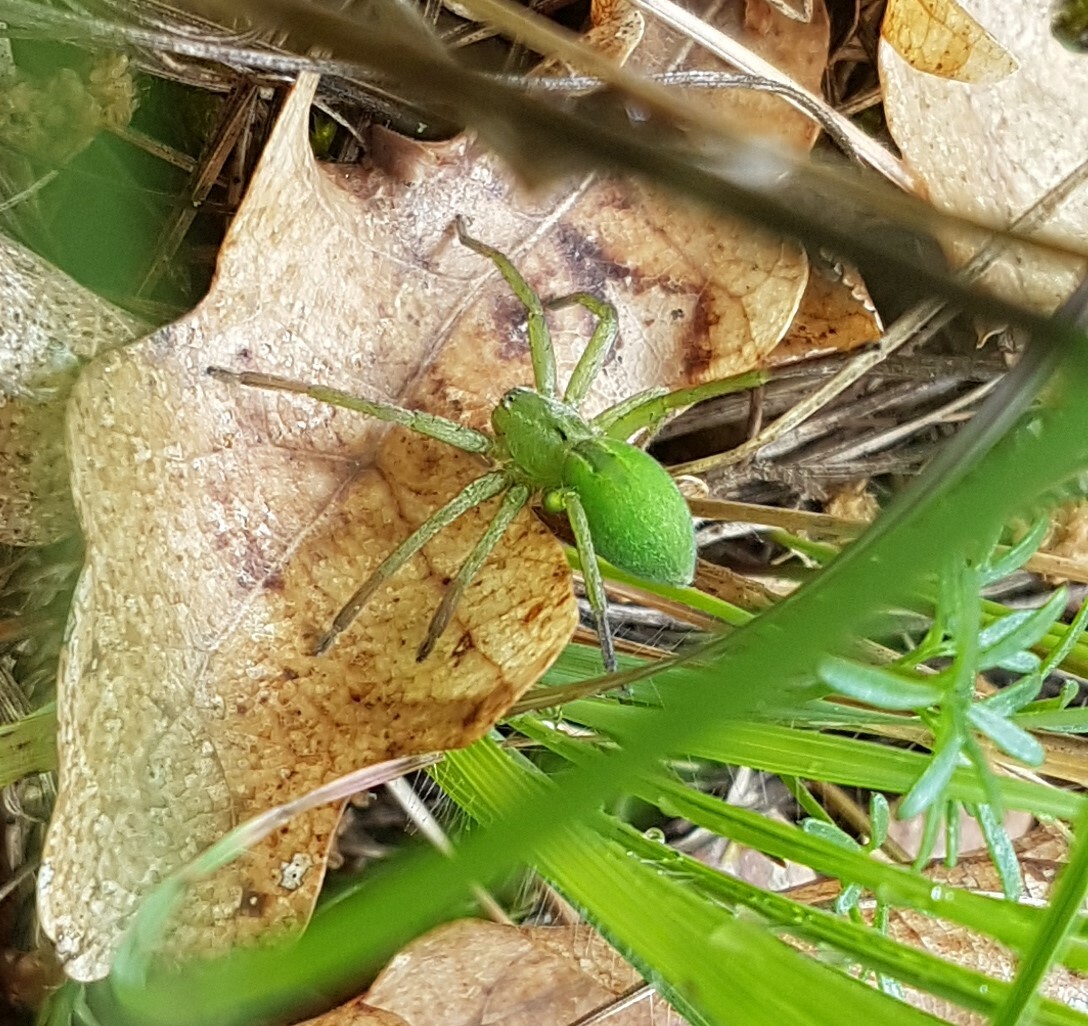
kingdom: Animalia
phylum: Arthropoda
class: Arachnida
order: Araneae
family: Sparassidae
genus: Micrommata
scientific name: Micrommata ligurina
